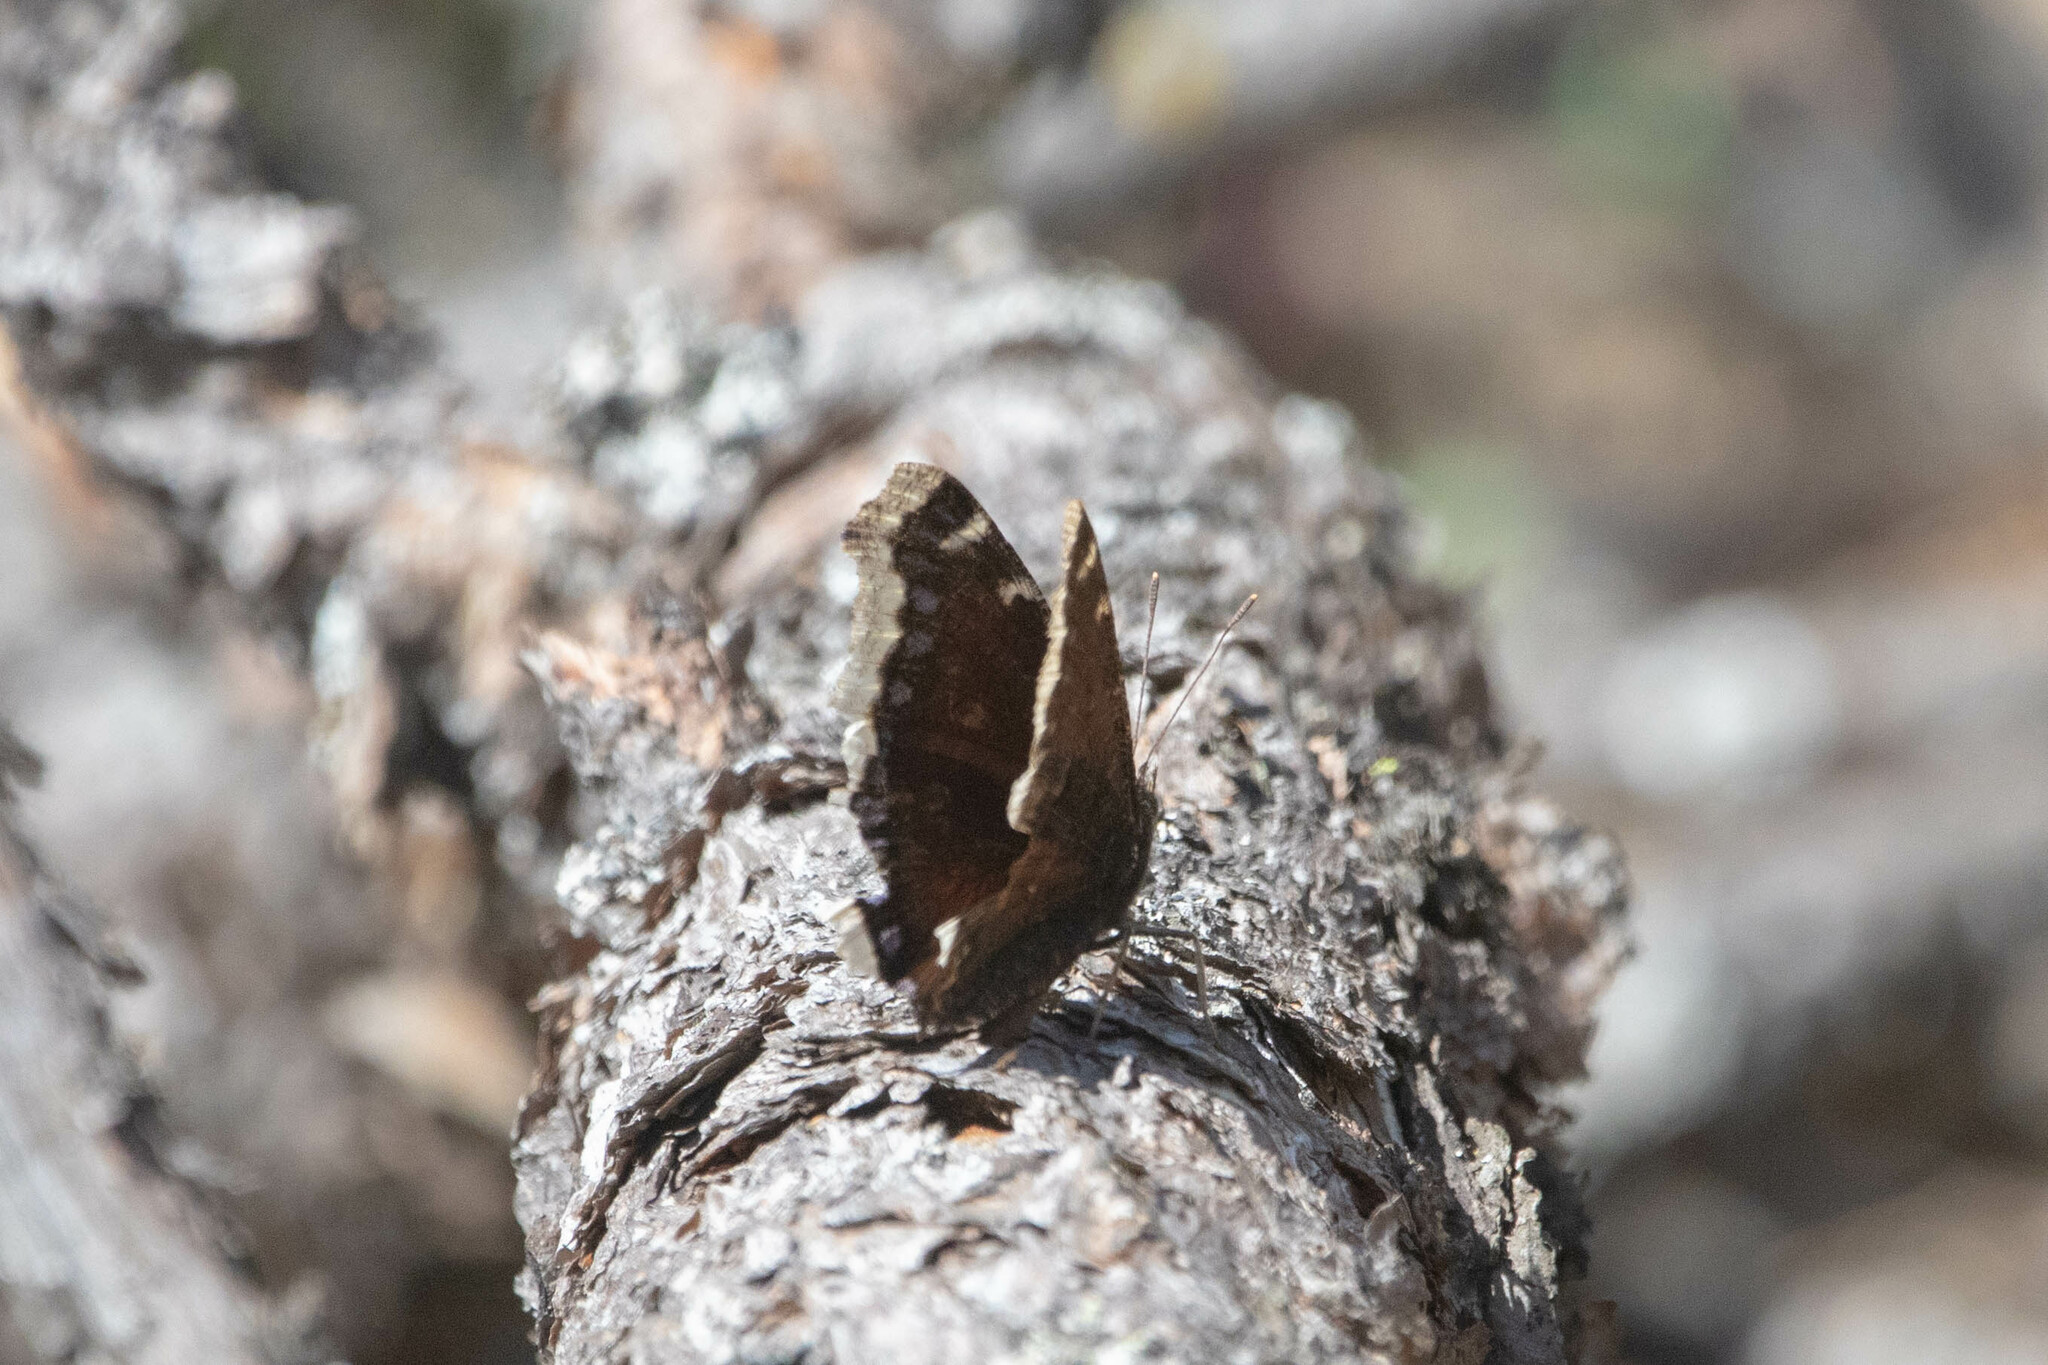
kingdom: Animalia
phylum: Arthropoda
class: Insecta
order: Lepidoptera
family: Nymphalidae
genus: Nymphalis
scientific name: Nymphalis antiopa
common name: Camberwell beauty
